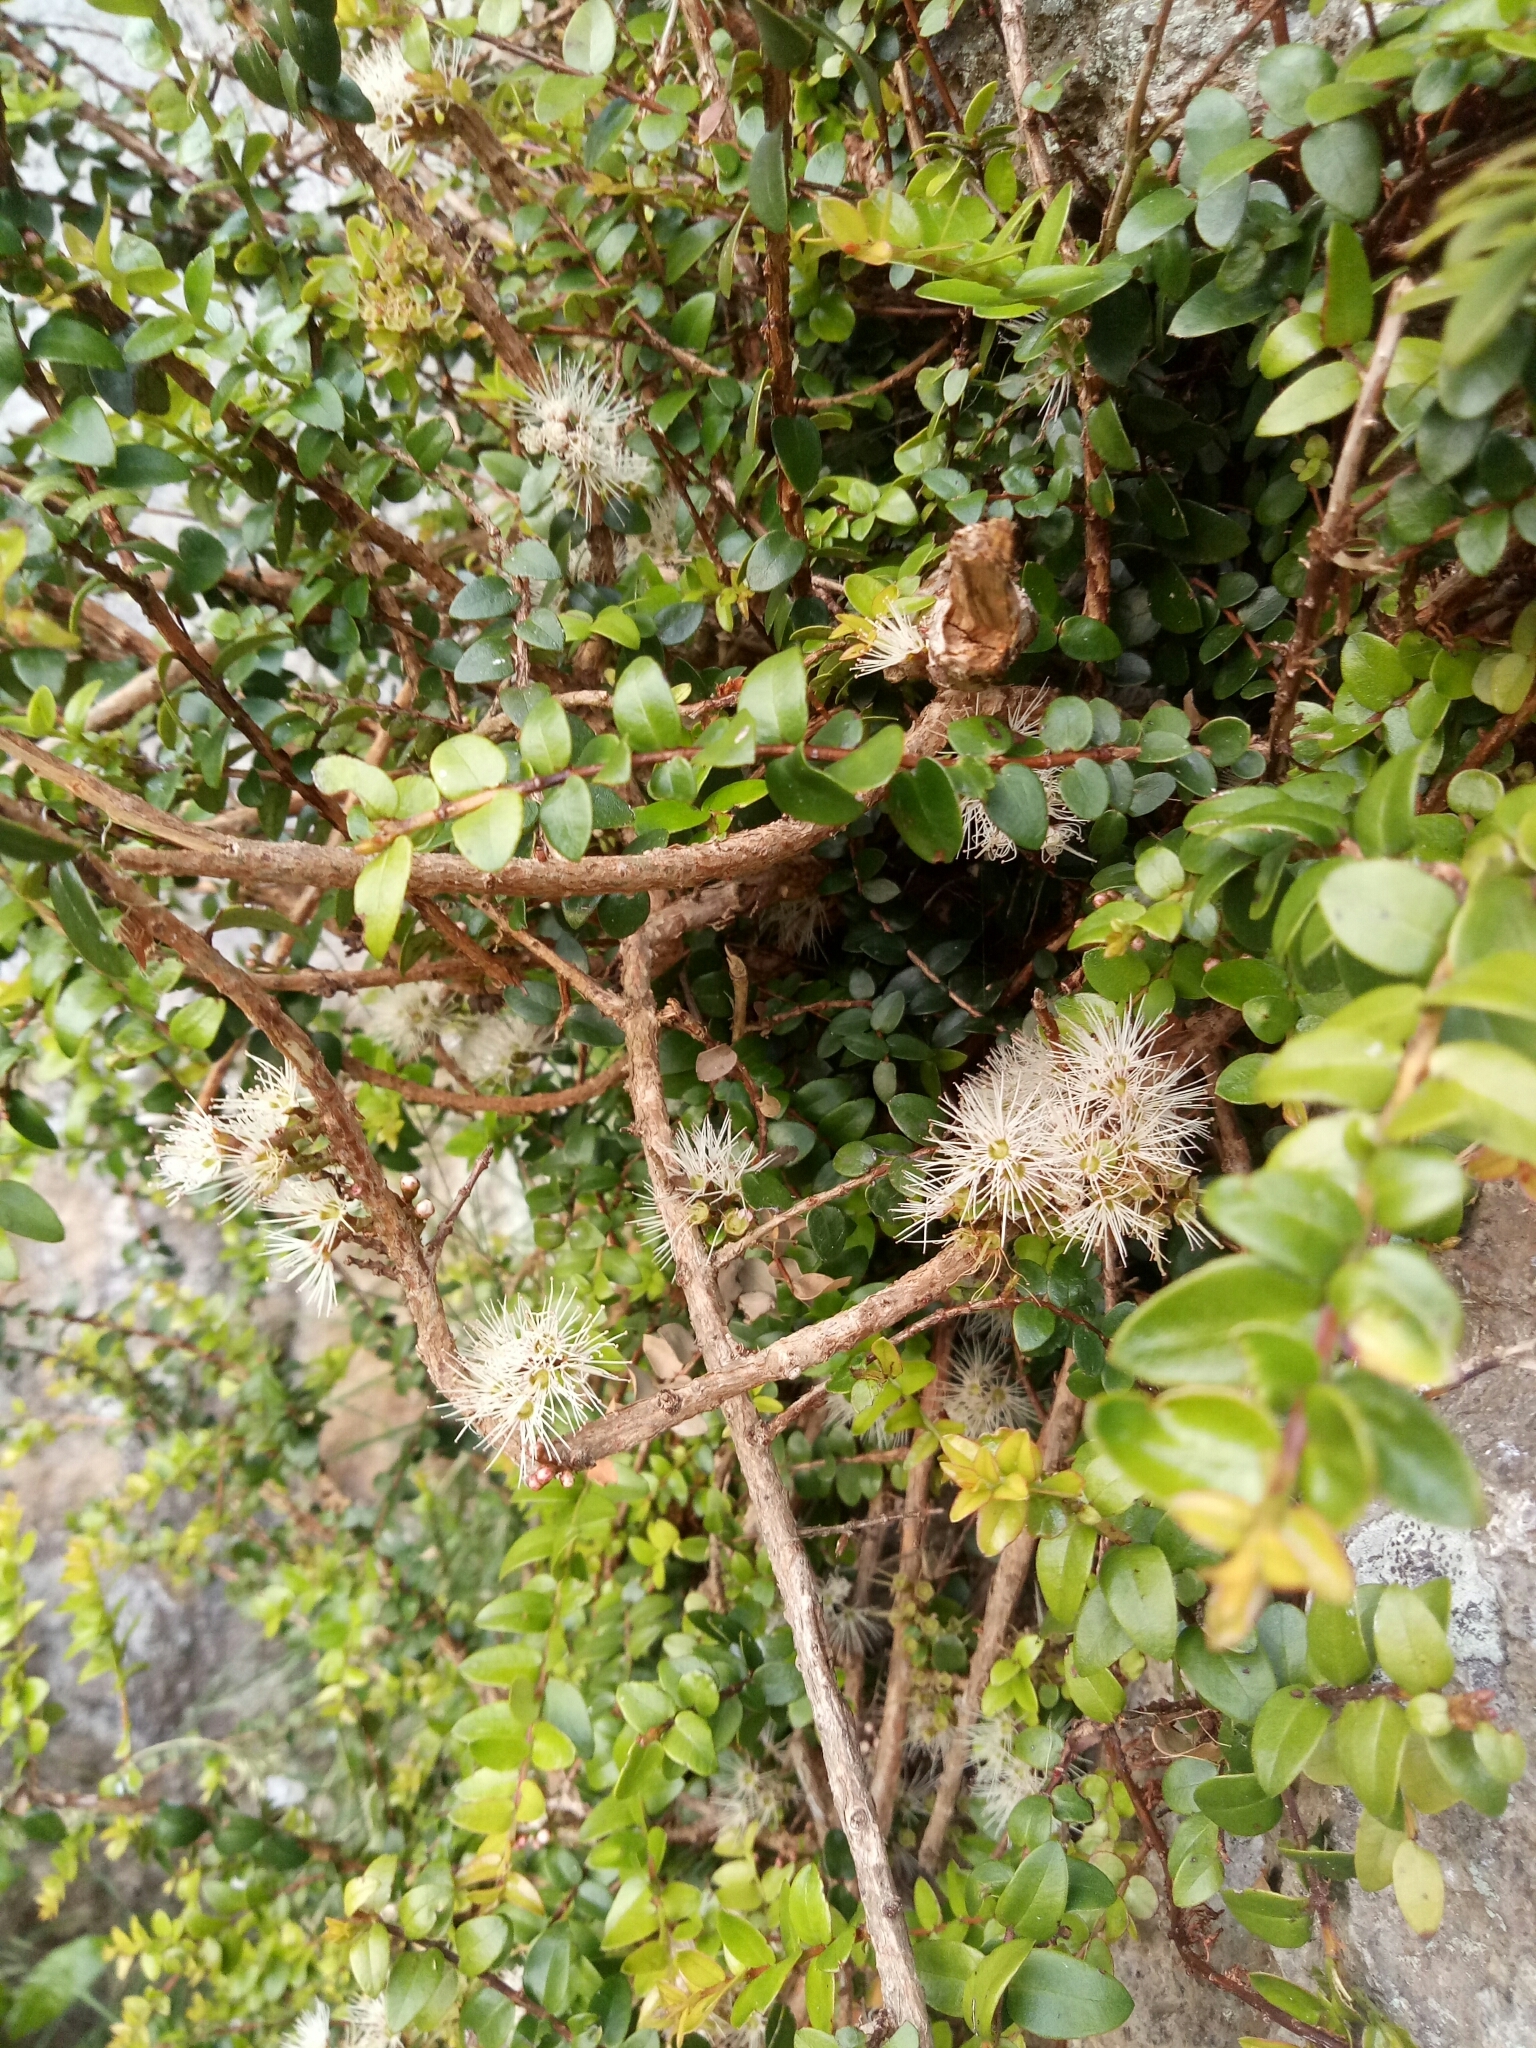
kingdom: Plantae
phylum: Tracheophyta
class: Magnoliopsida
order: Myrtales
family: Myrtaceae
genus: Metrosideros
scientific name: Metrosideros diffusa
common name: Small ratavine
